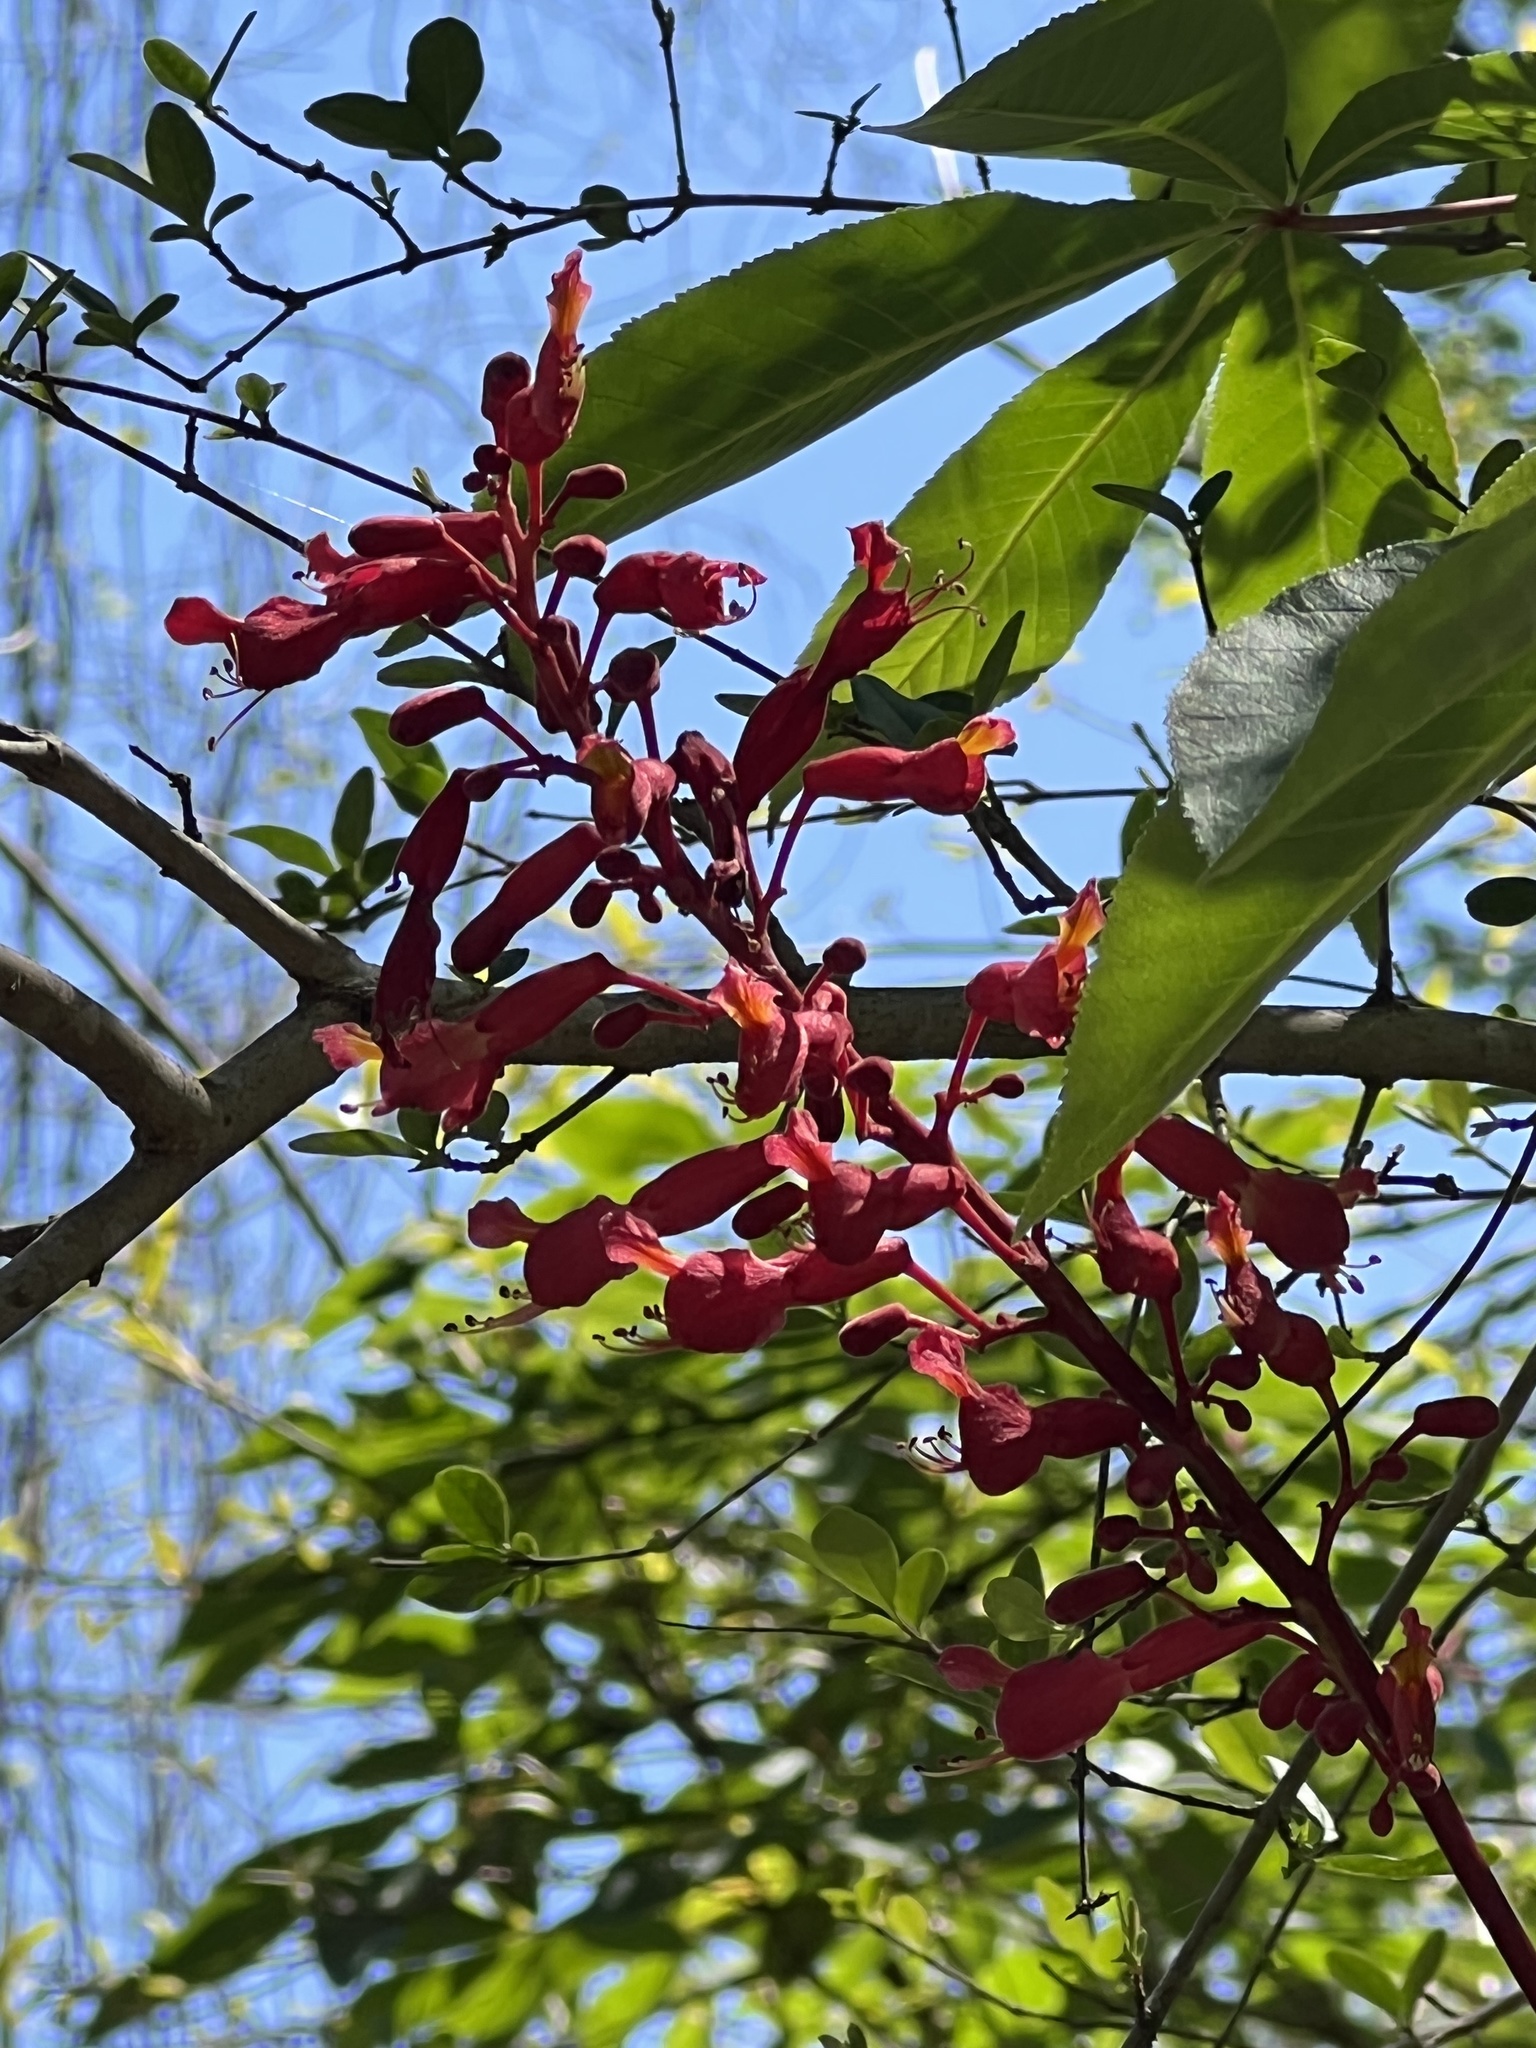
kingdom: Plantae
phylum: Tracheophyta
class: Magnoliopsida
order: Sapindales
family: Sapindaceae
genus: Aesculus
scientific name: Aesculus pavia
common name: Red buckeye
